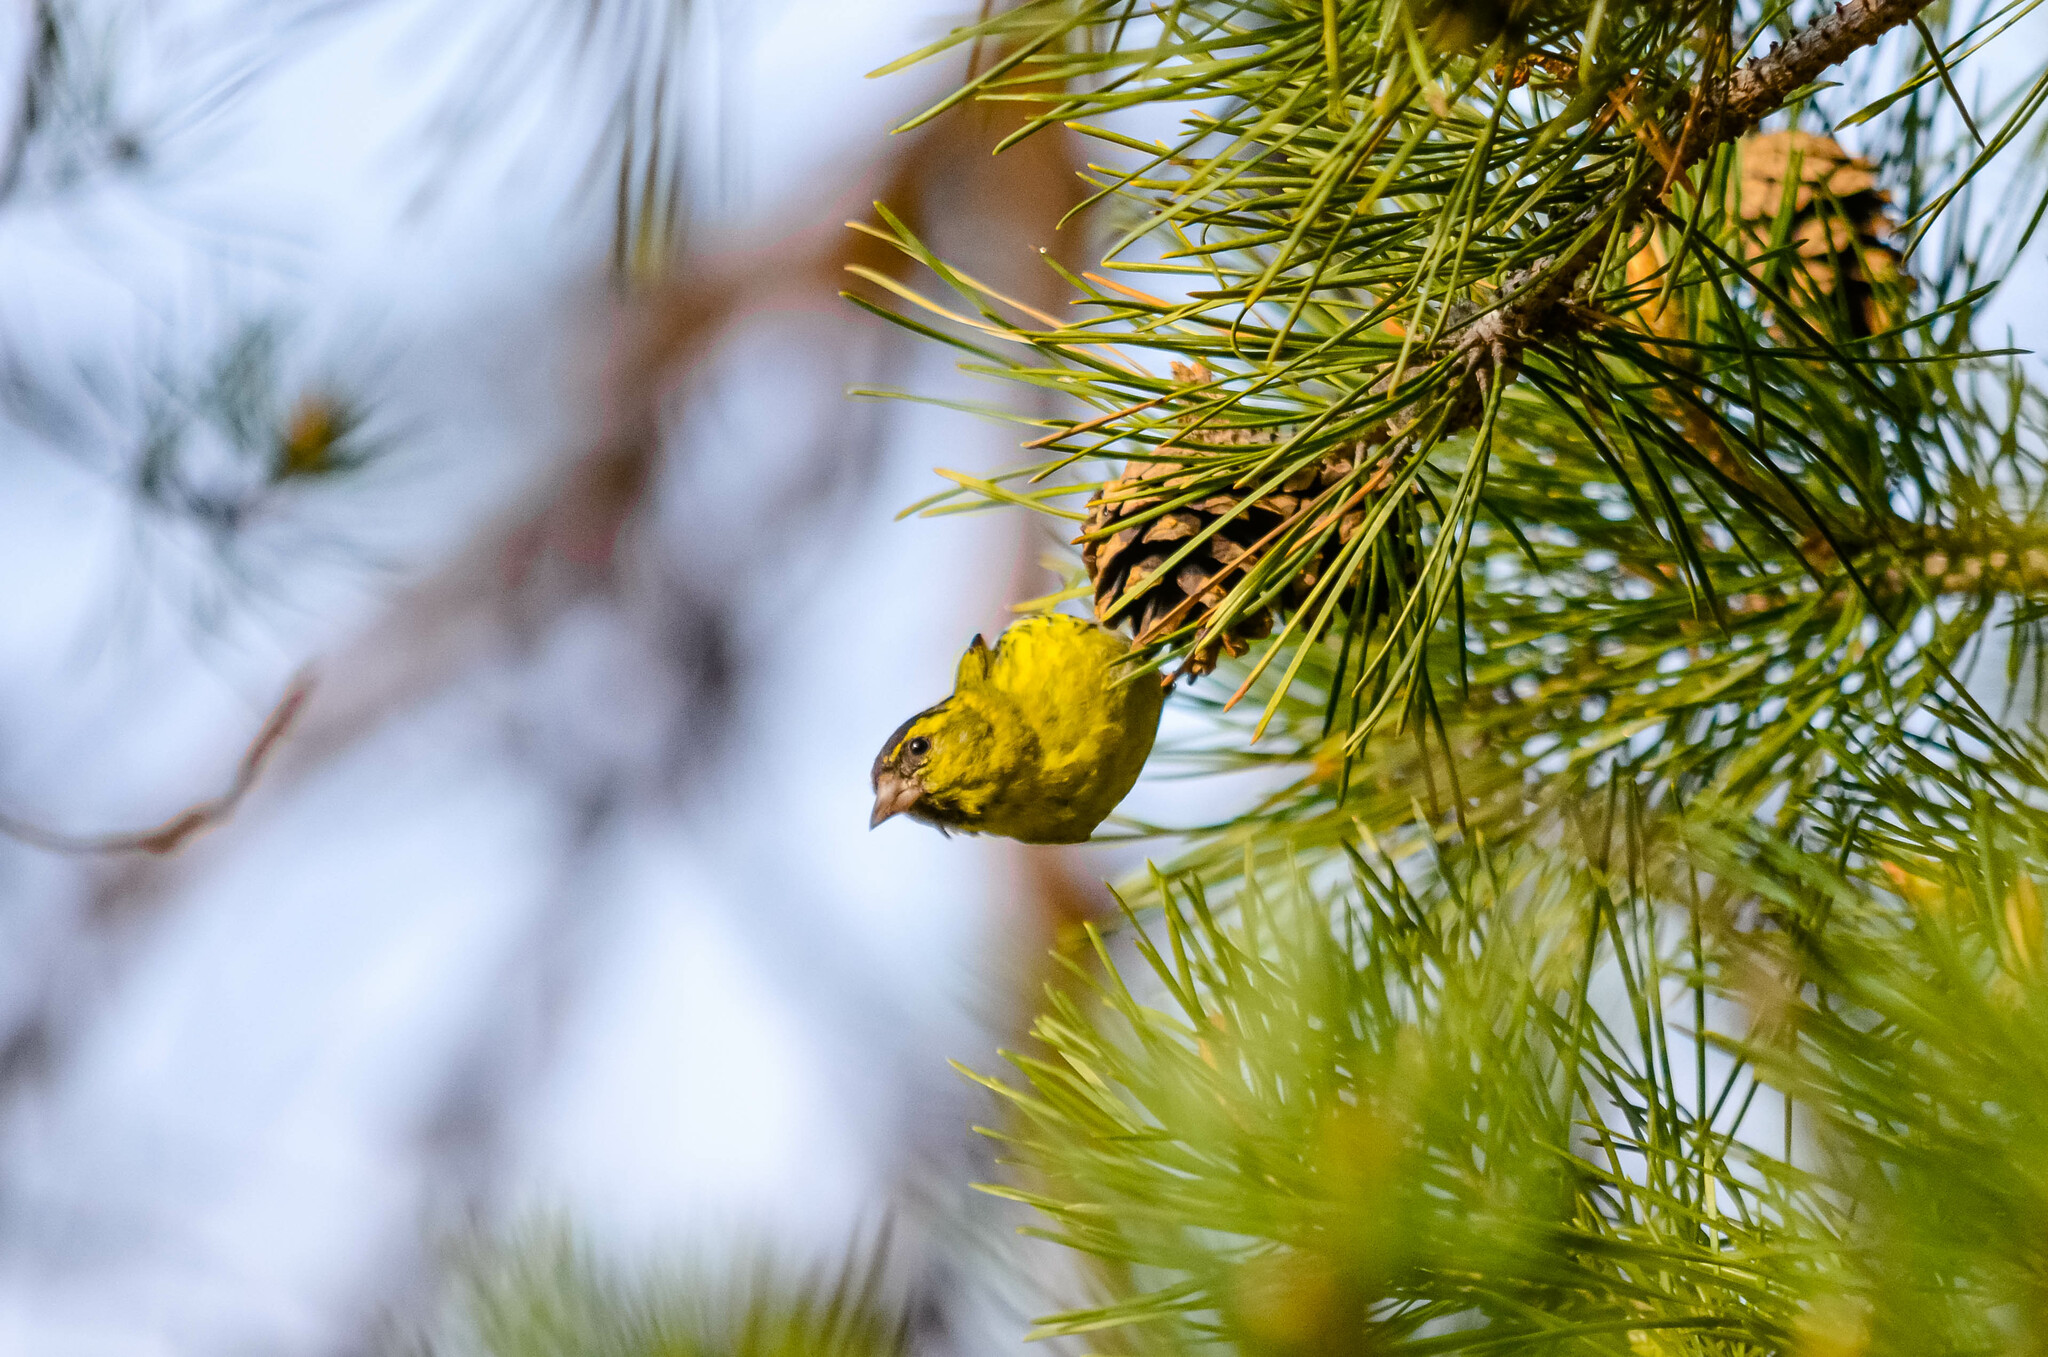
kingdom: Animalia
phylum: Chordata
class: Aves
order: Passeriformes
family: Fringillidae
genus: Spinus
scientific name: Spinus spinus
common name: Eurasian siskin
